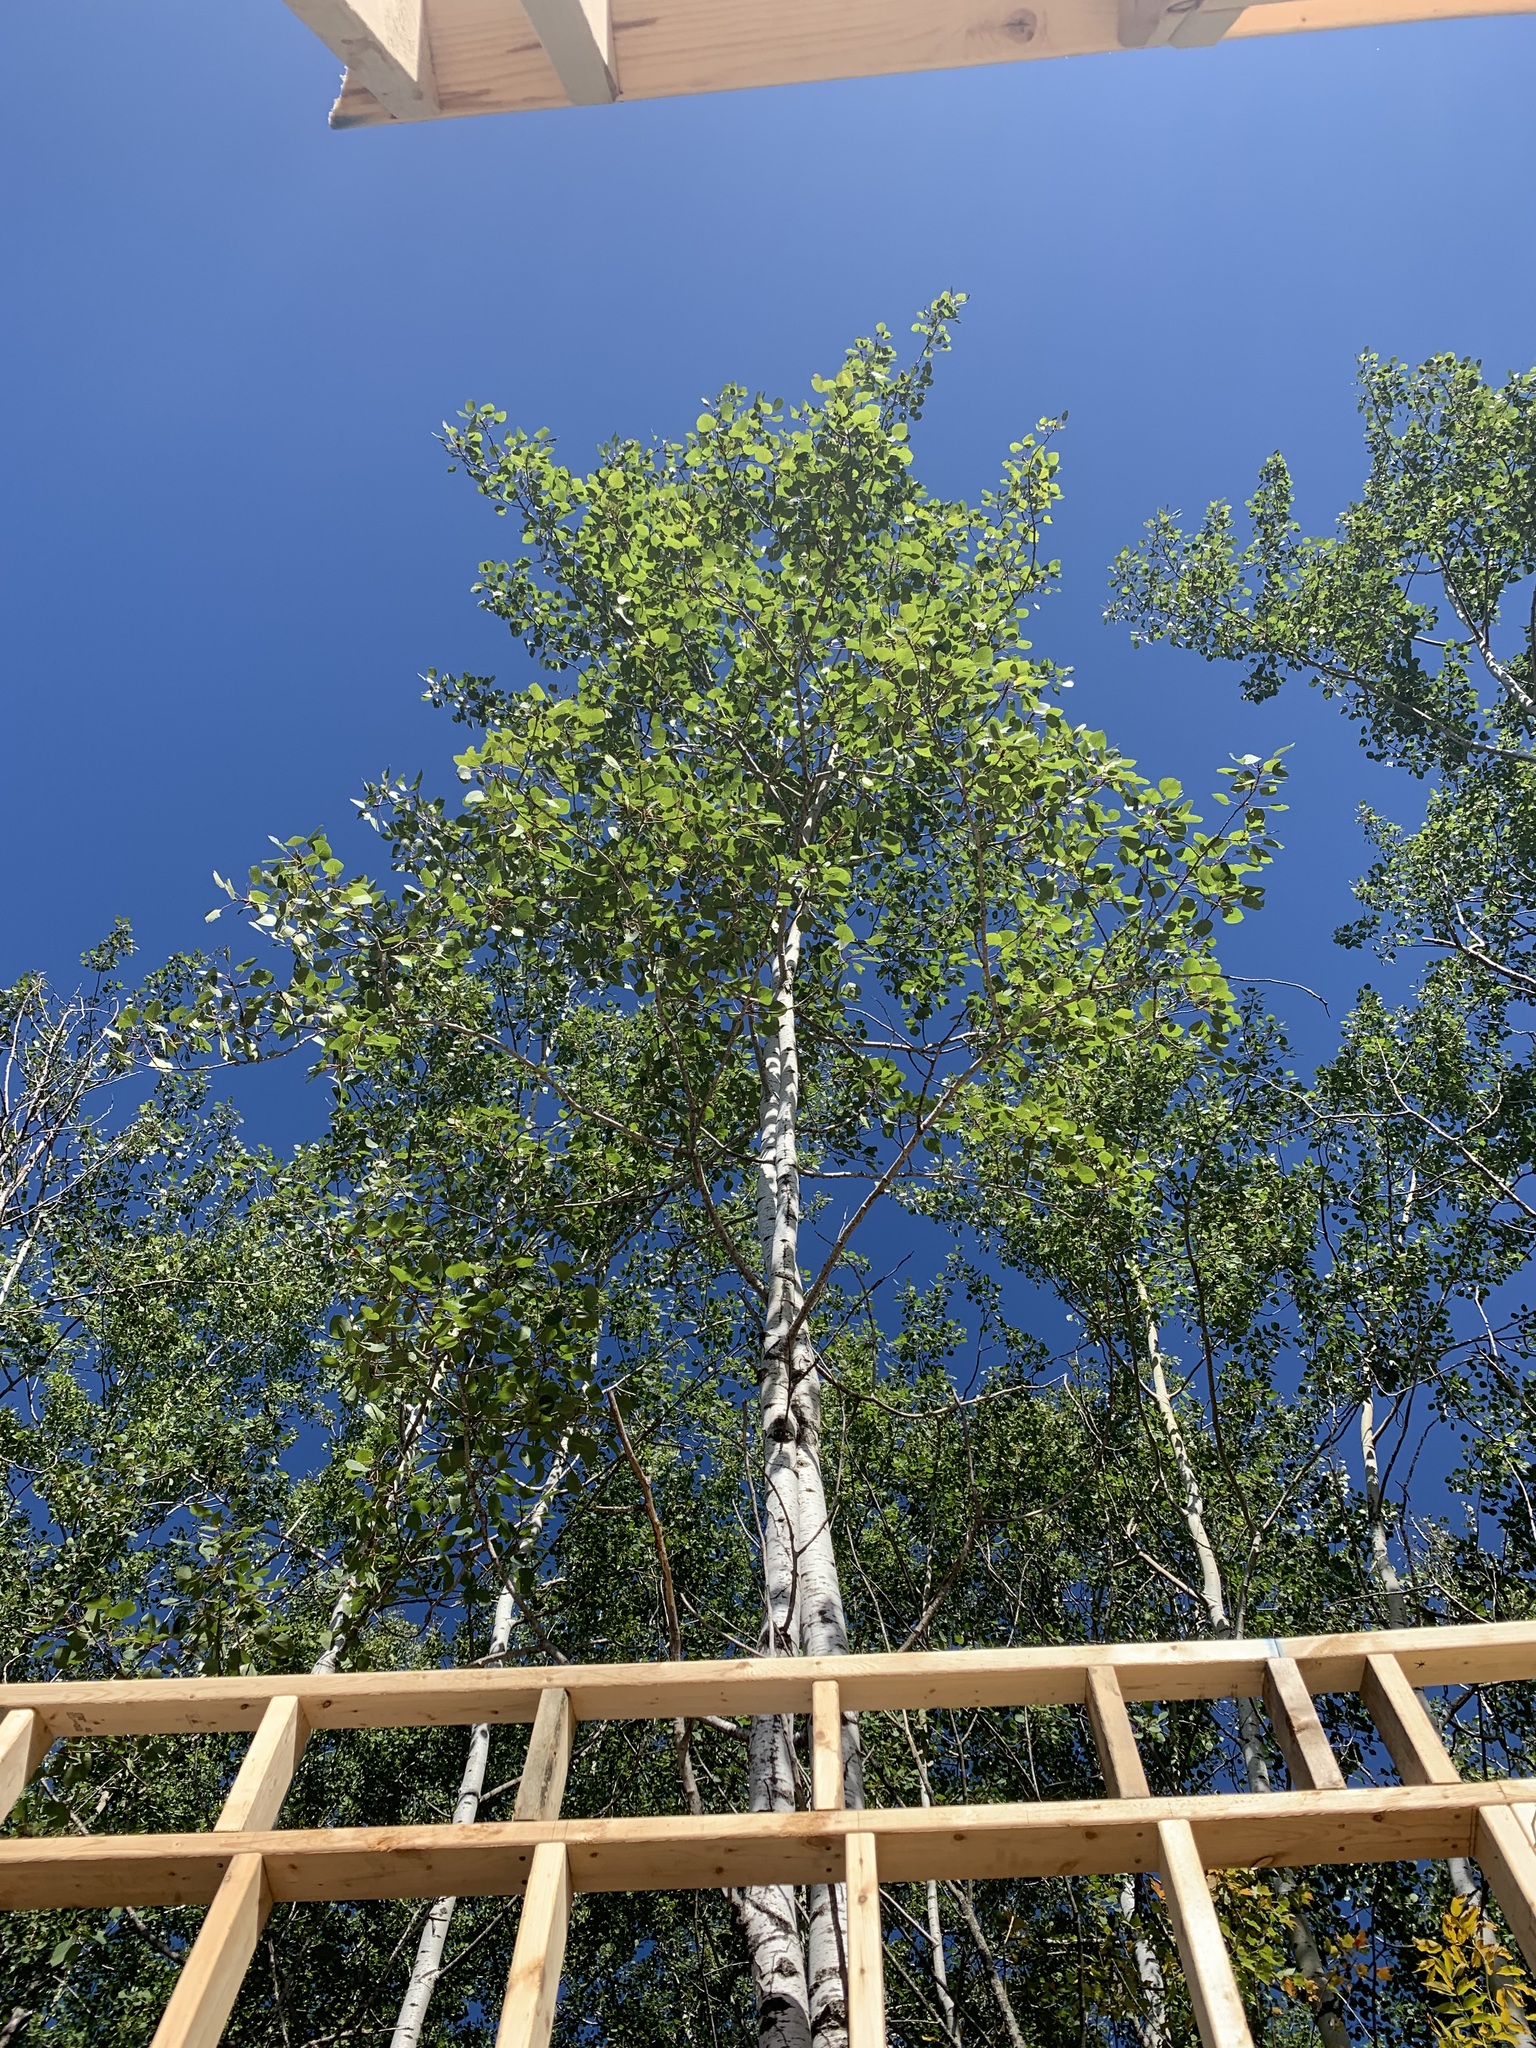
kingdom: Plantae
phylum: Tracheophyta
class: Magnoliopsida
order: Malpighiales
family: Salicaceae
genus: Populus
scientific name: Populus tremuloides
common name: Quaking aspen
